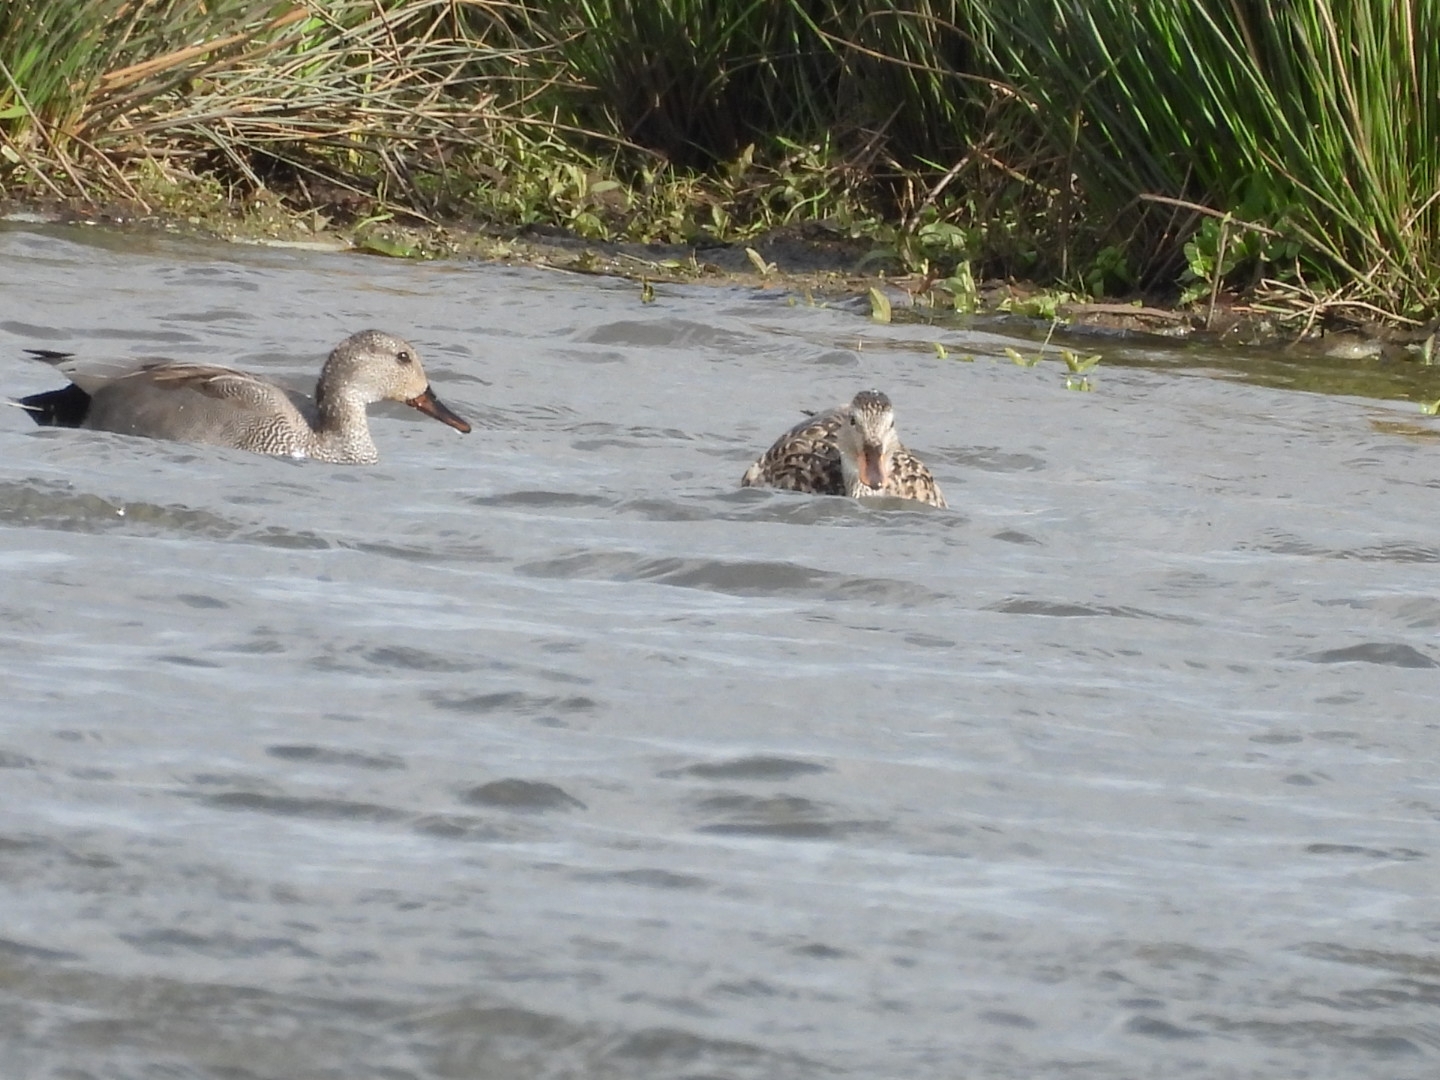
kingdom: Animalia
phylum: Chordata
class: Aves
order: Anseriformes
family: Anatidae
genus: Mareca
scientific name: Mareca strepera
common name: Gadwall
